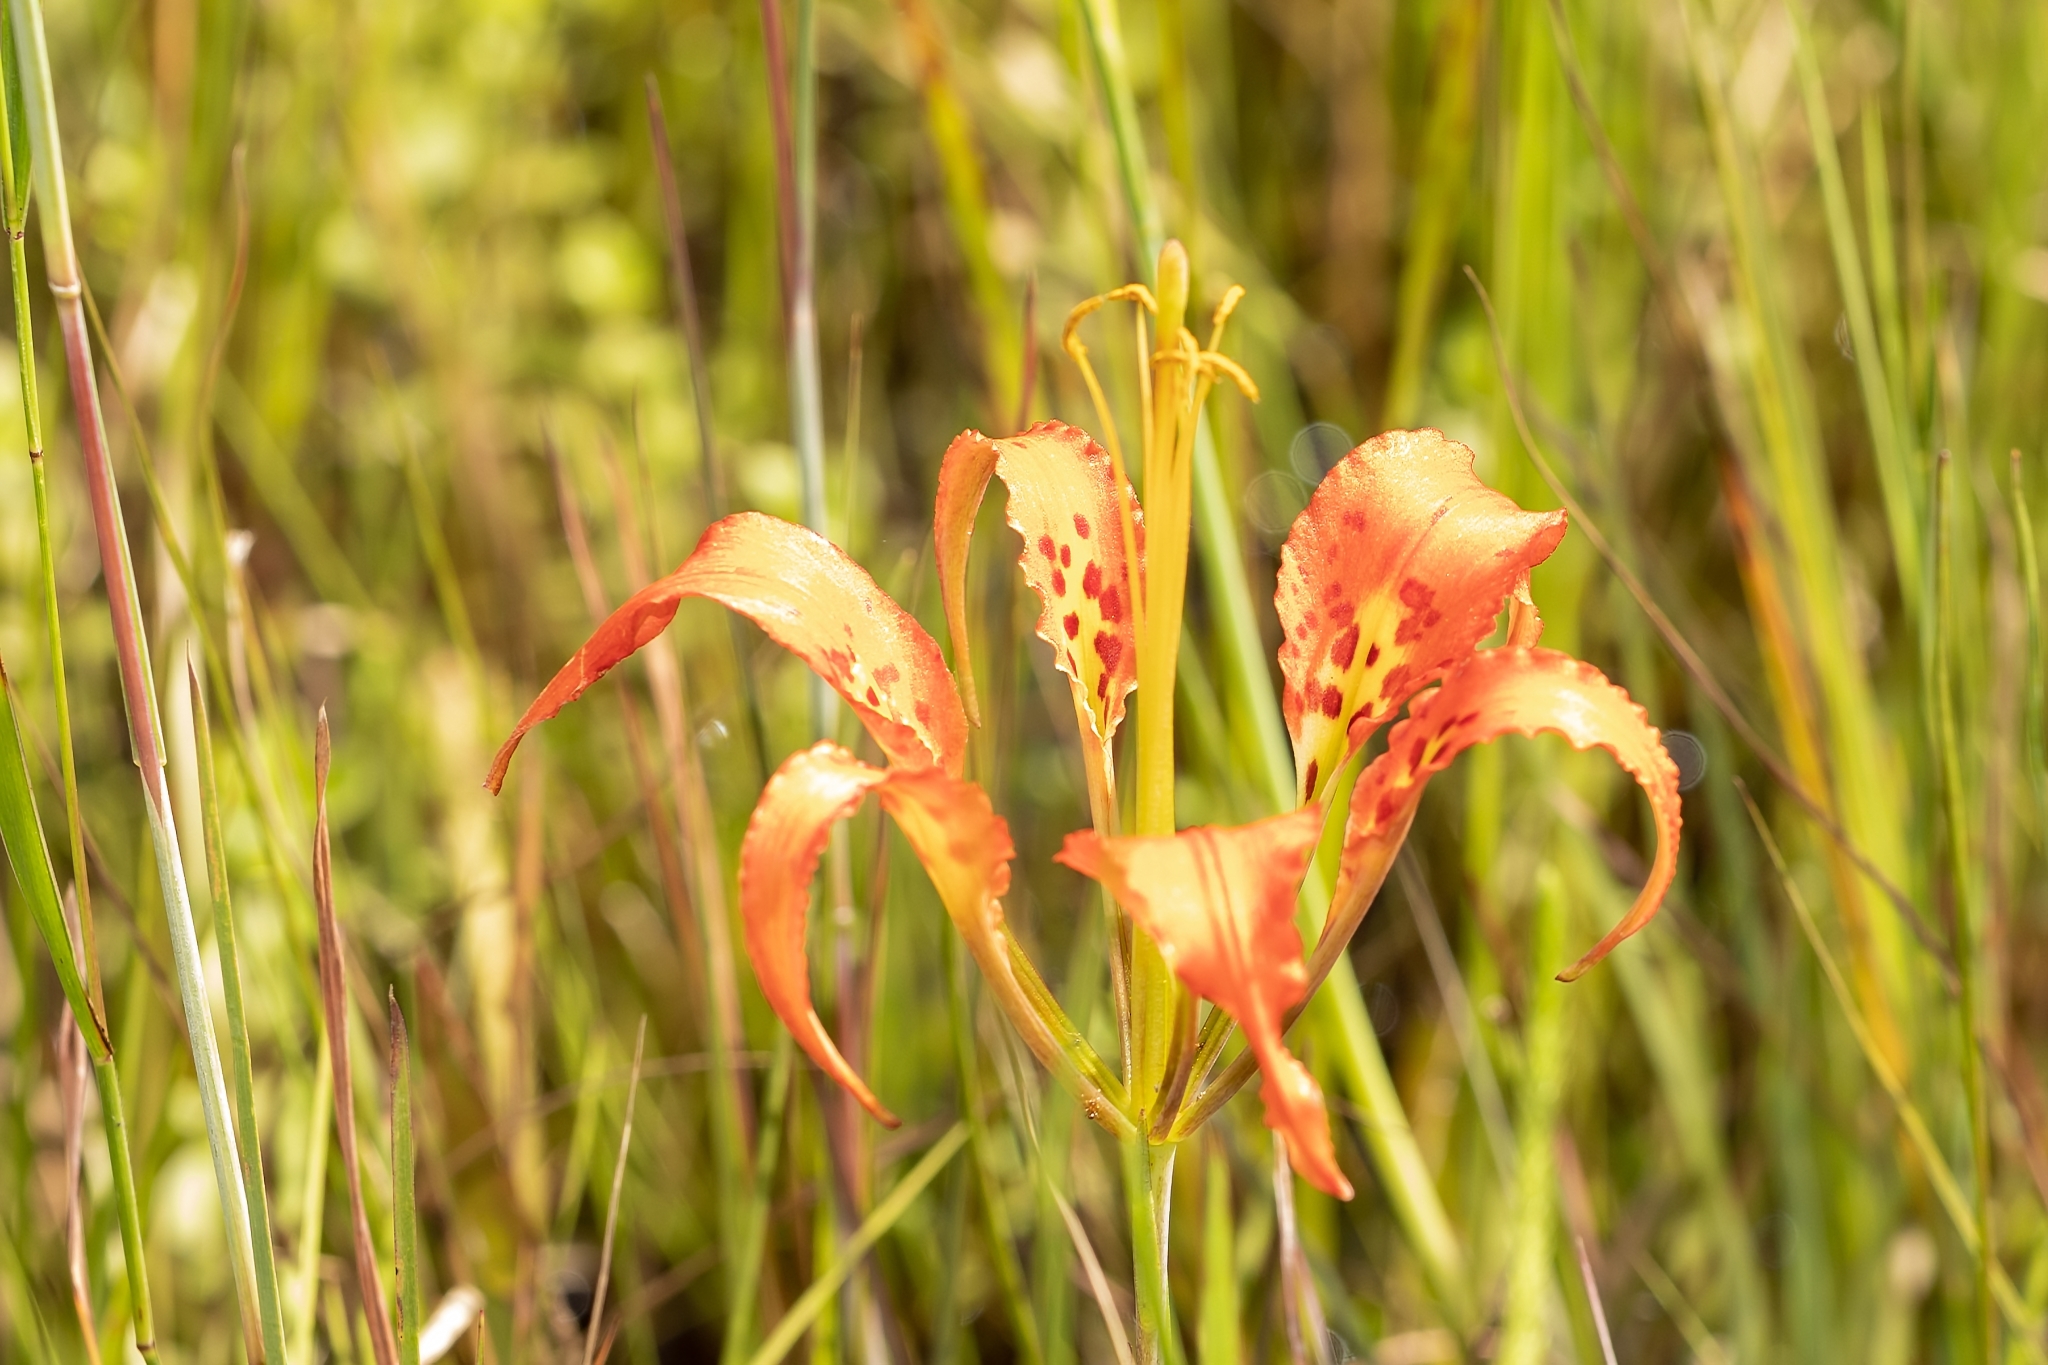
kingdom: Plantae
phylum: Tracheophyta
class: Liliopsida
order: Liliales
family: Liliaceae
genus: Lilium
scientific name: Lilium catesbaei
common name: Catesby's lily
